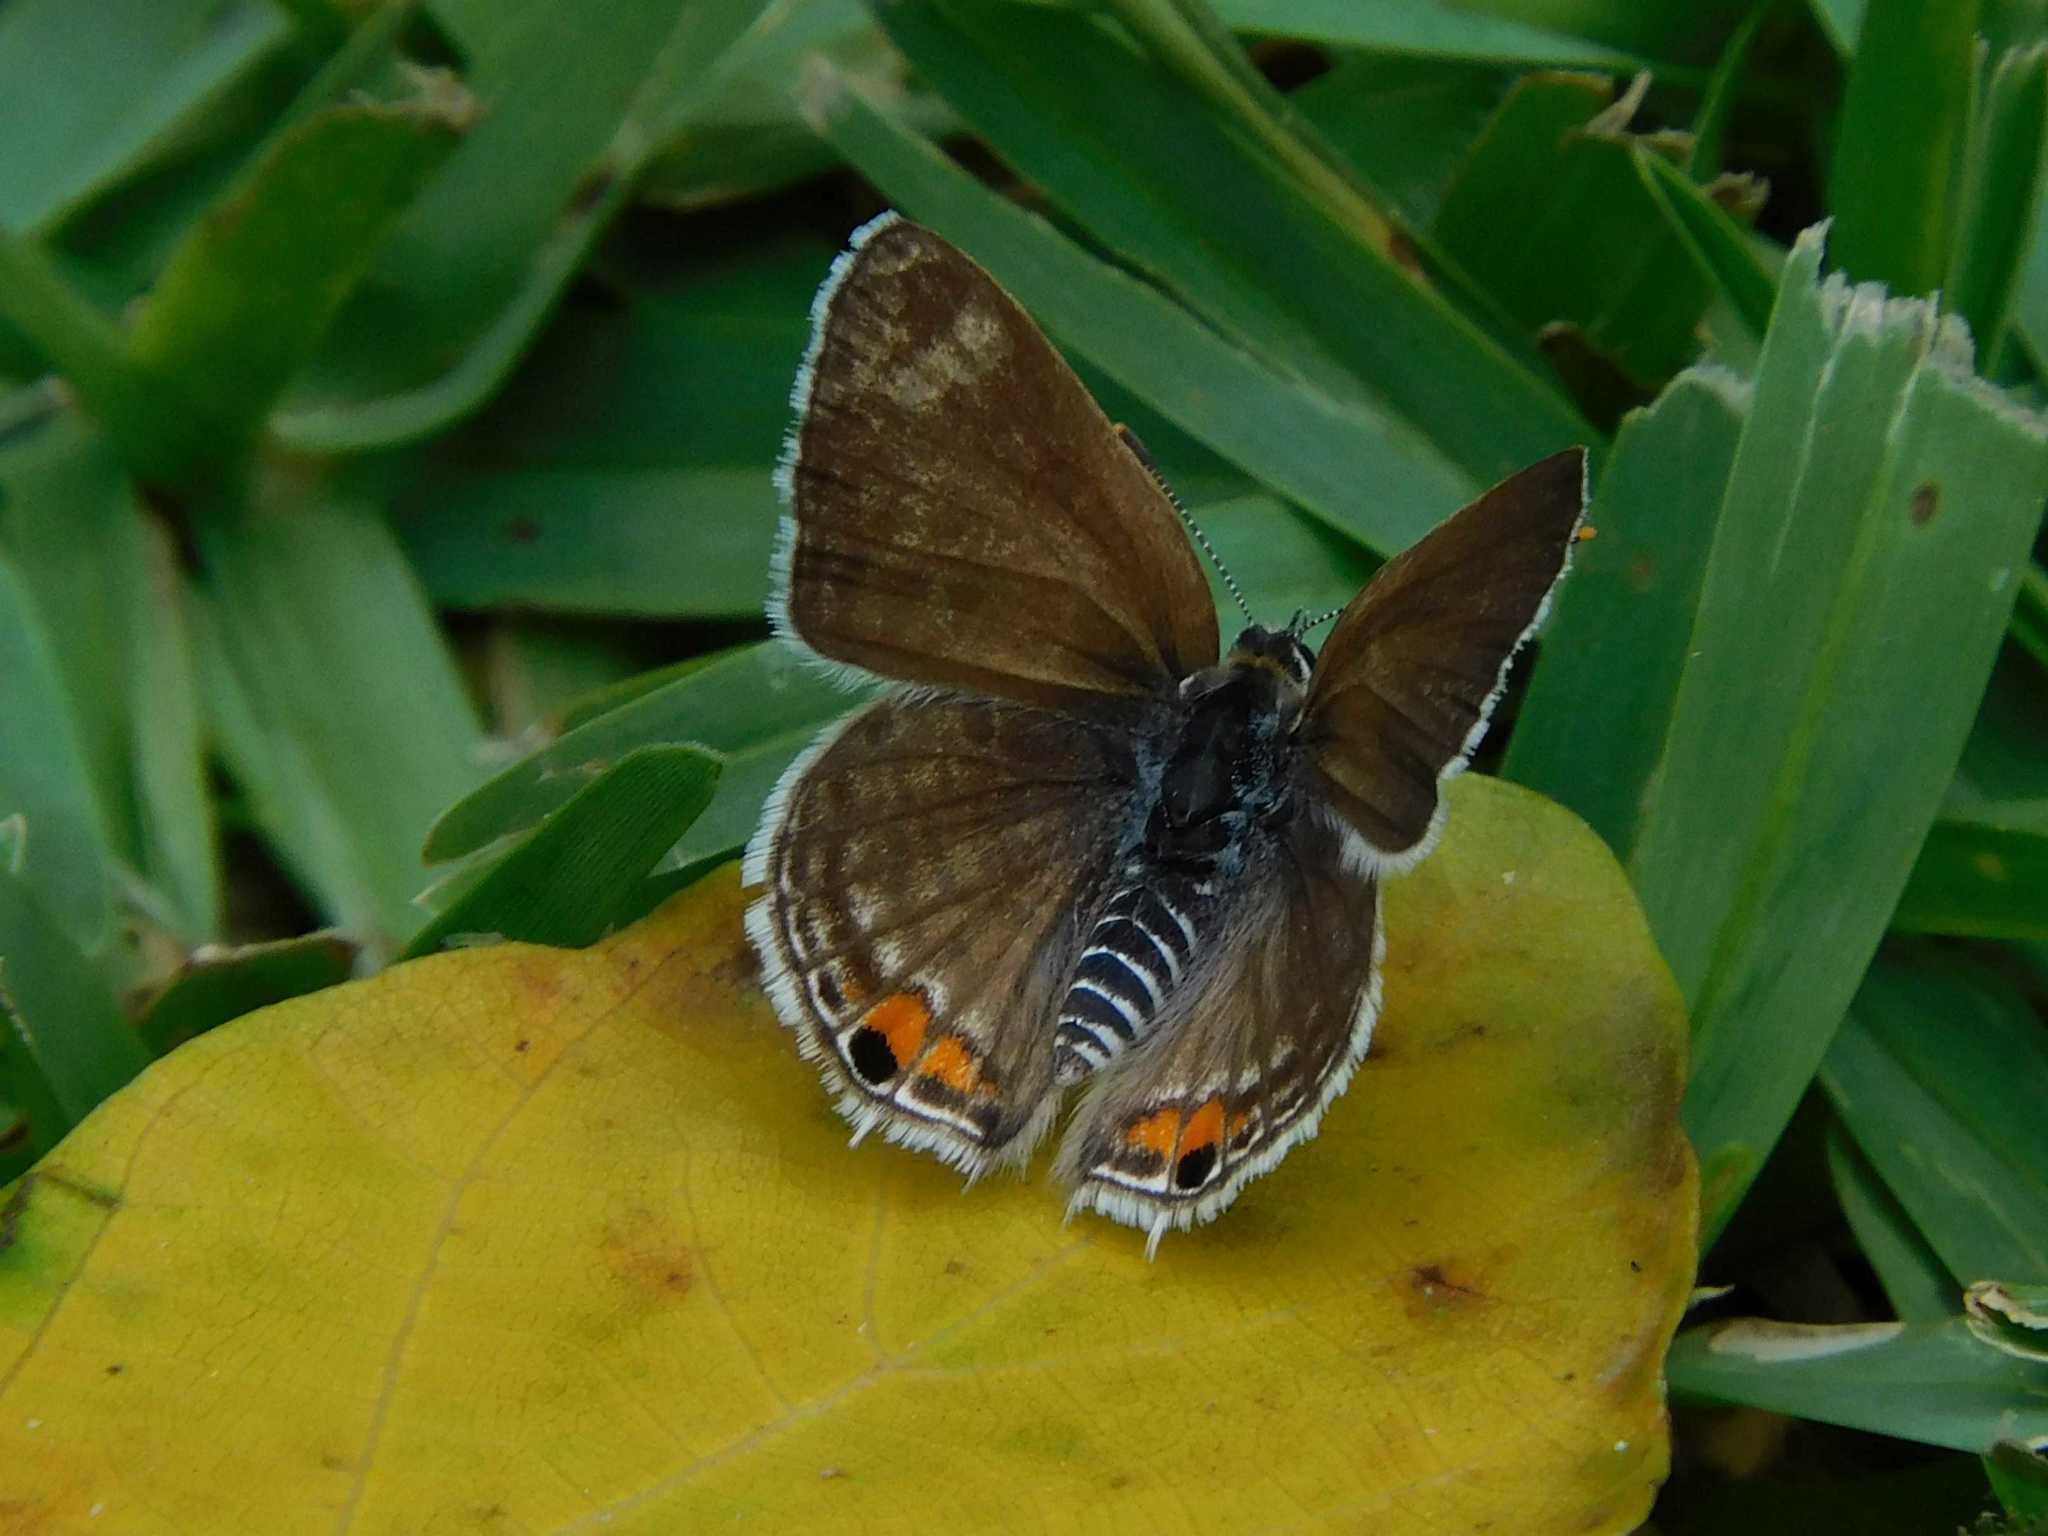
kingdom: Animalia
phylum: Arthropoda
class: Insecta
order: Lepidoptera
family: Lycaenidae
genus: Anthene
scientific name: Anthene amarah
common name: Black-striped hairtail
